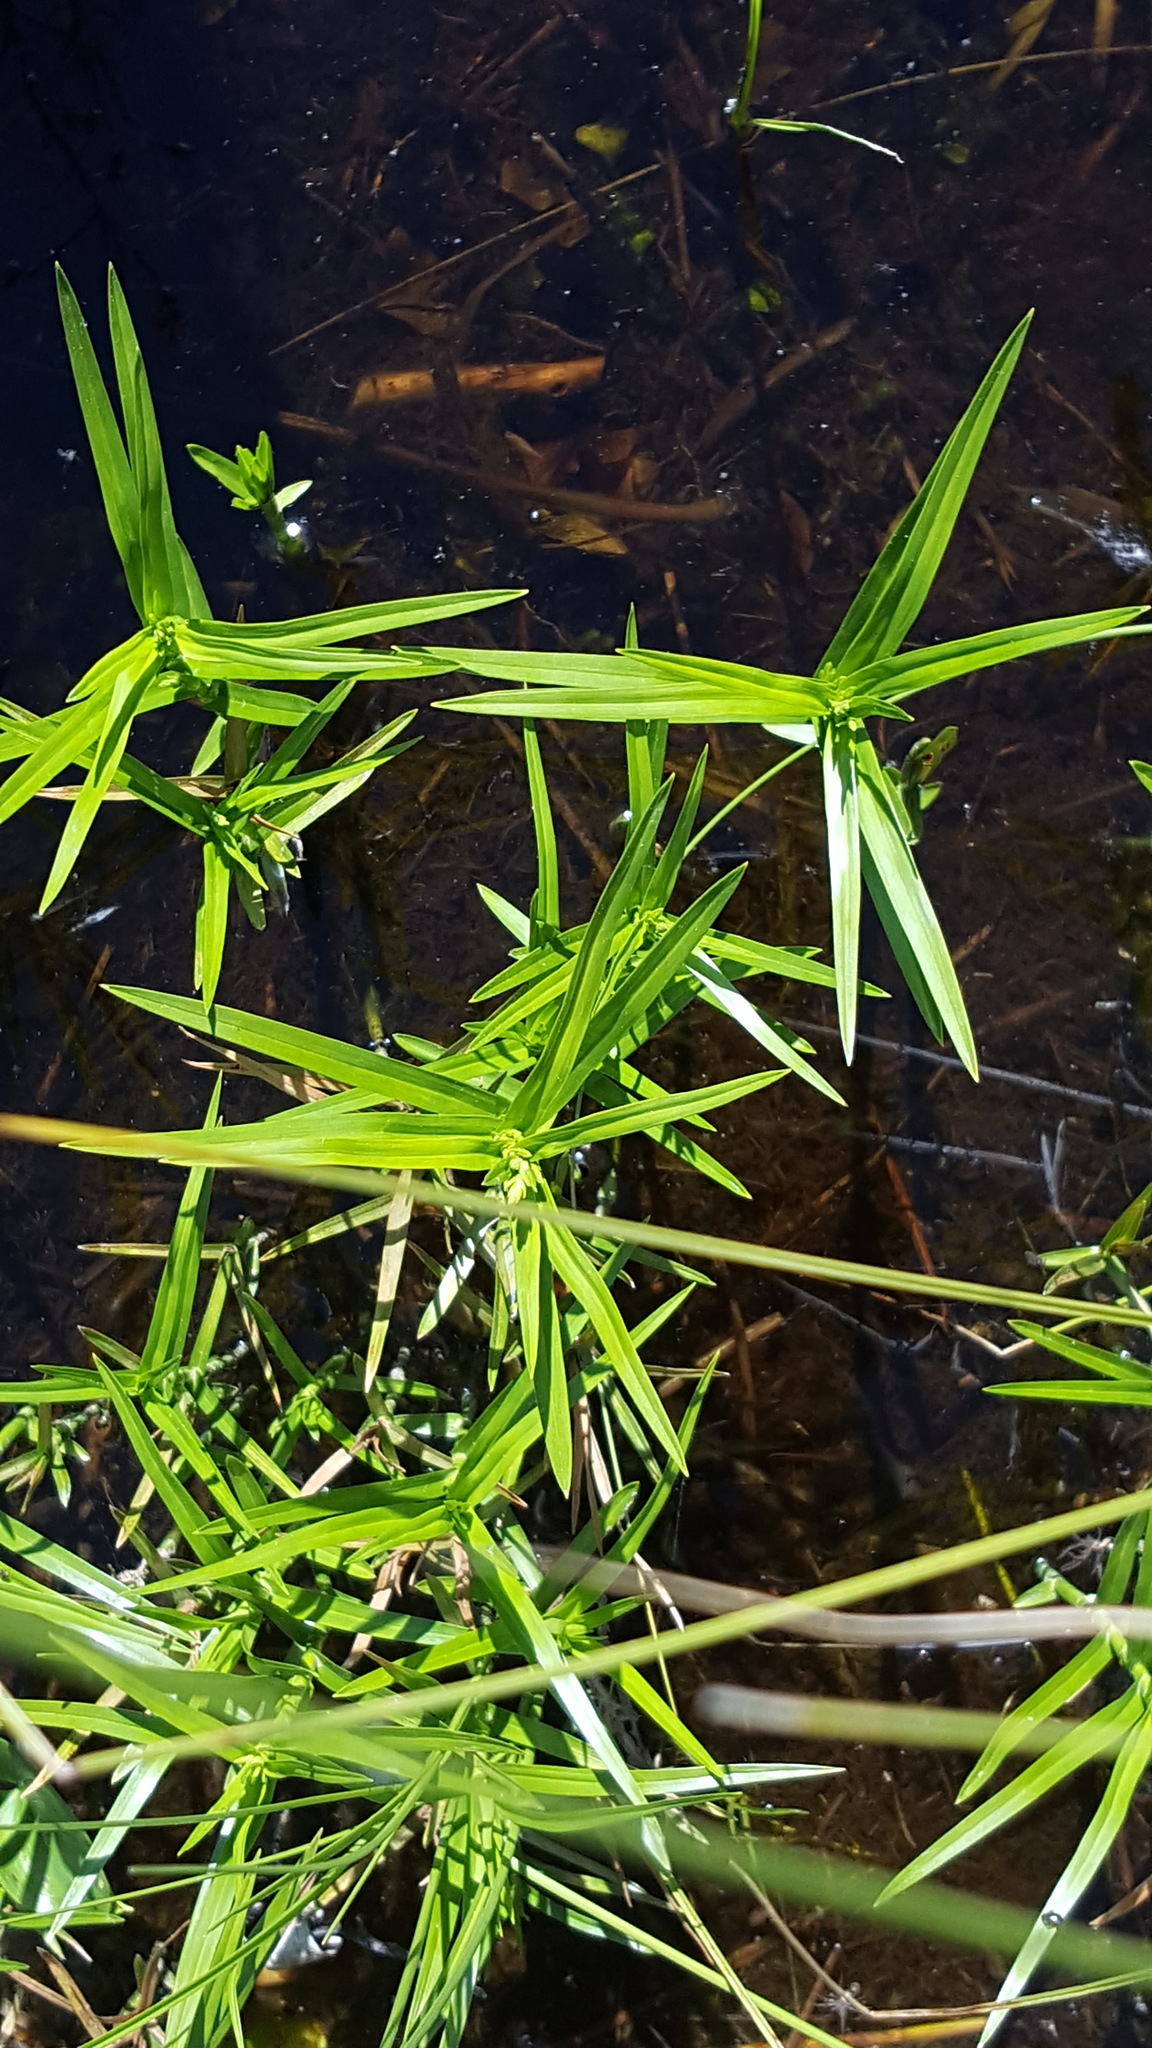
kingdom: Plantae
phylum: Tracheophyta
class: Liliopsida
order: Poales
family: Cyperaceae
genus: Dulichium
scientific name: Dulichium arundinaceum
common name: Three-way sedge
